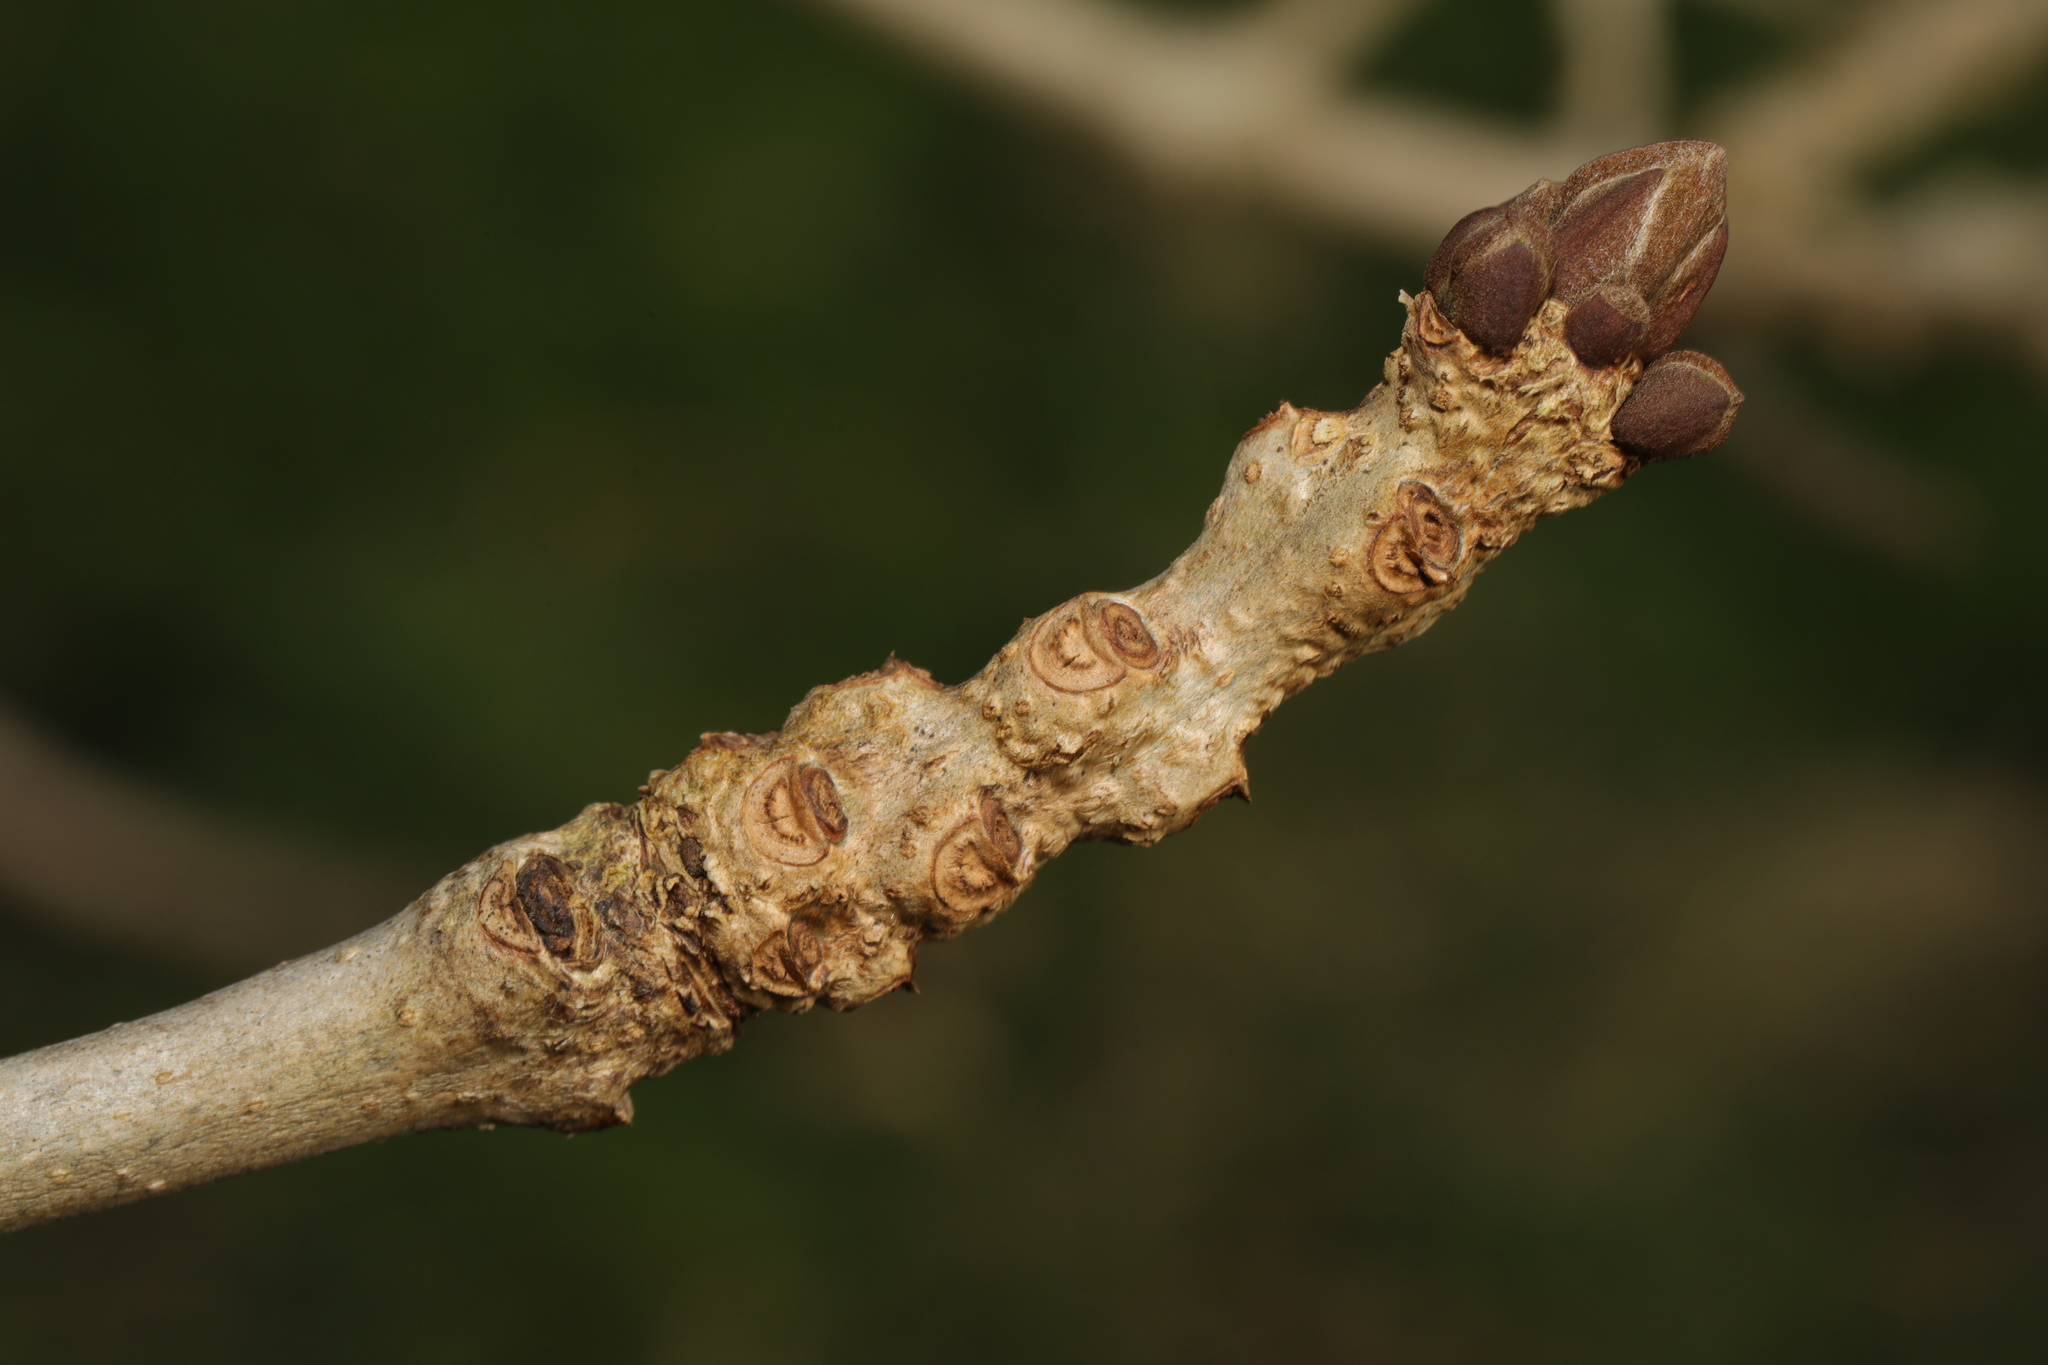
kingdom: Plantae
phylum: Tracheophyta
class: Magnoliopsida
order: Lamiales
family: Oleaceae
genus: Fraxinus
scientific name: Fraxinus excelsior
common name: European ash
